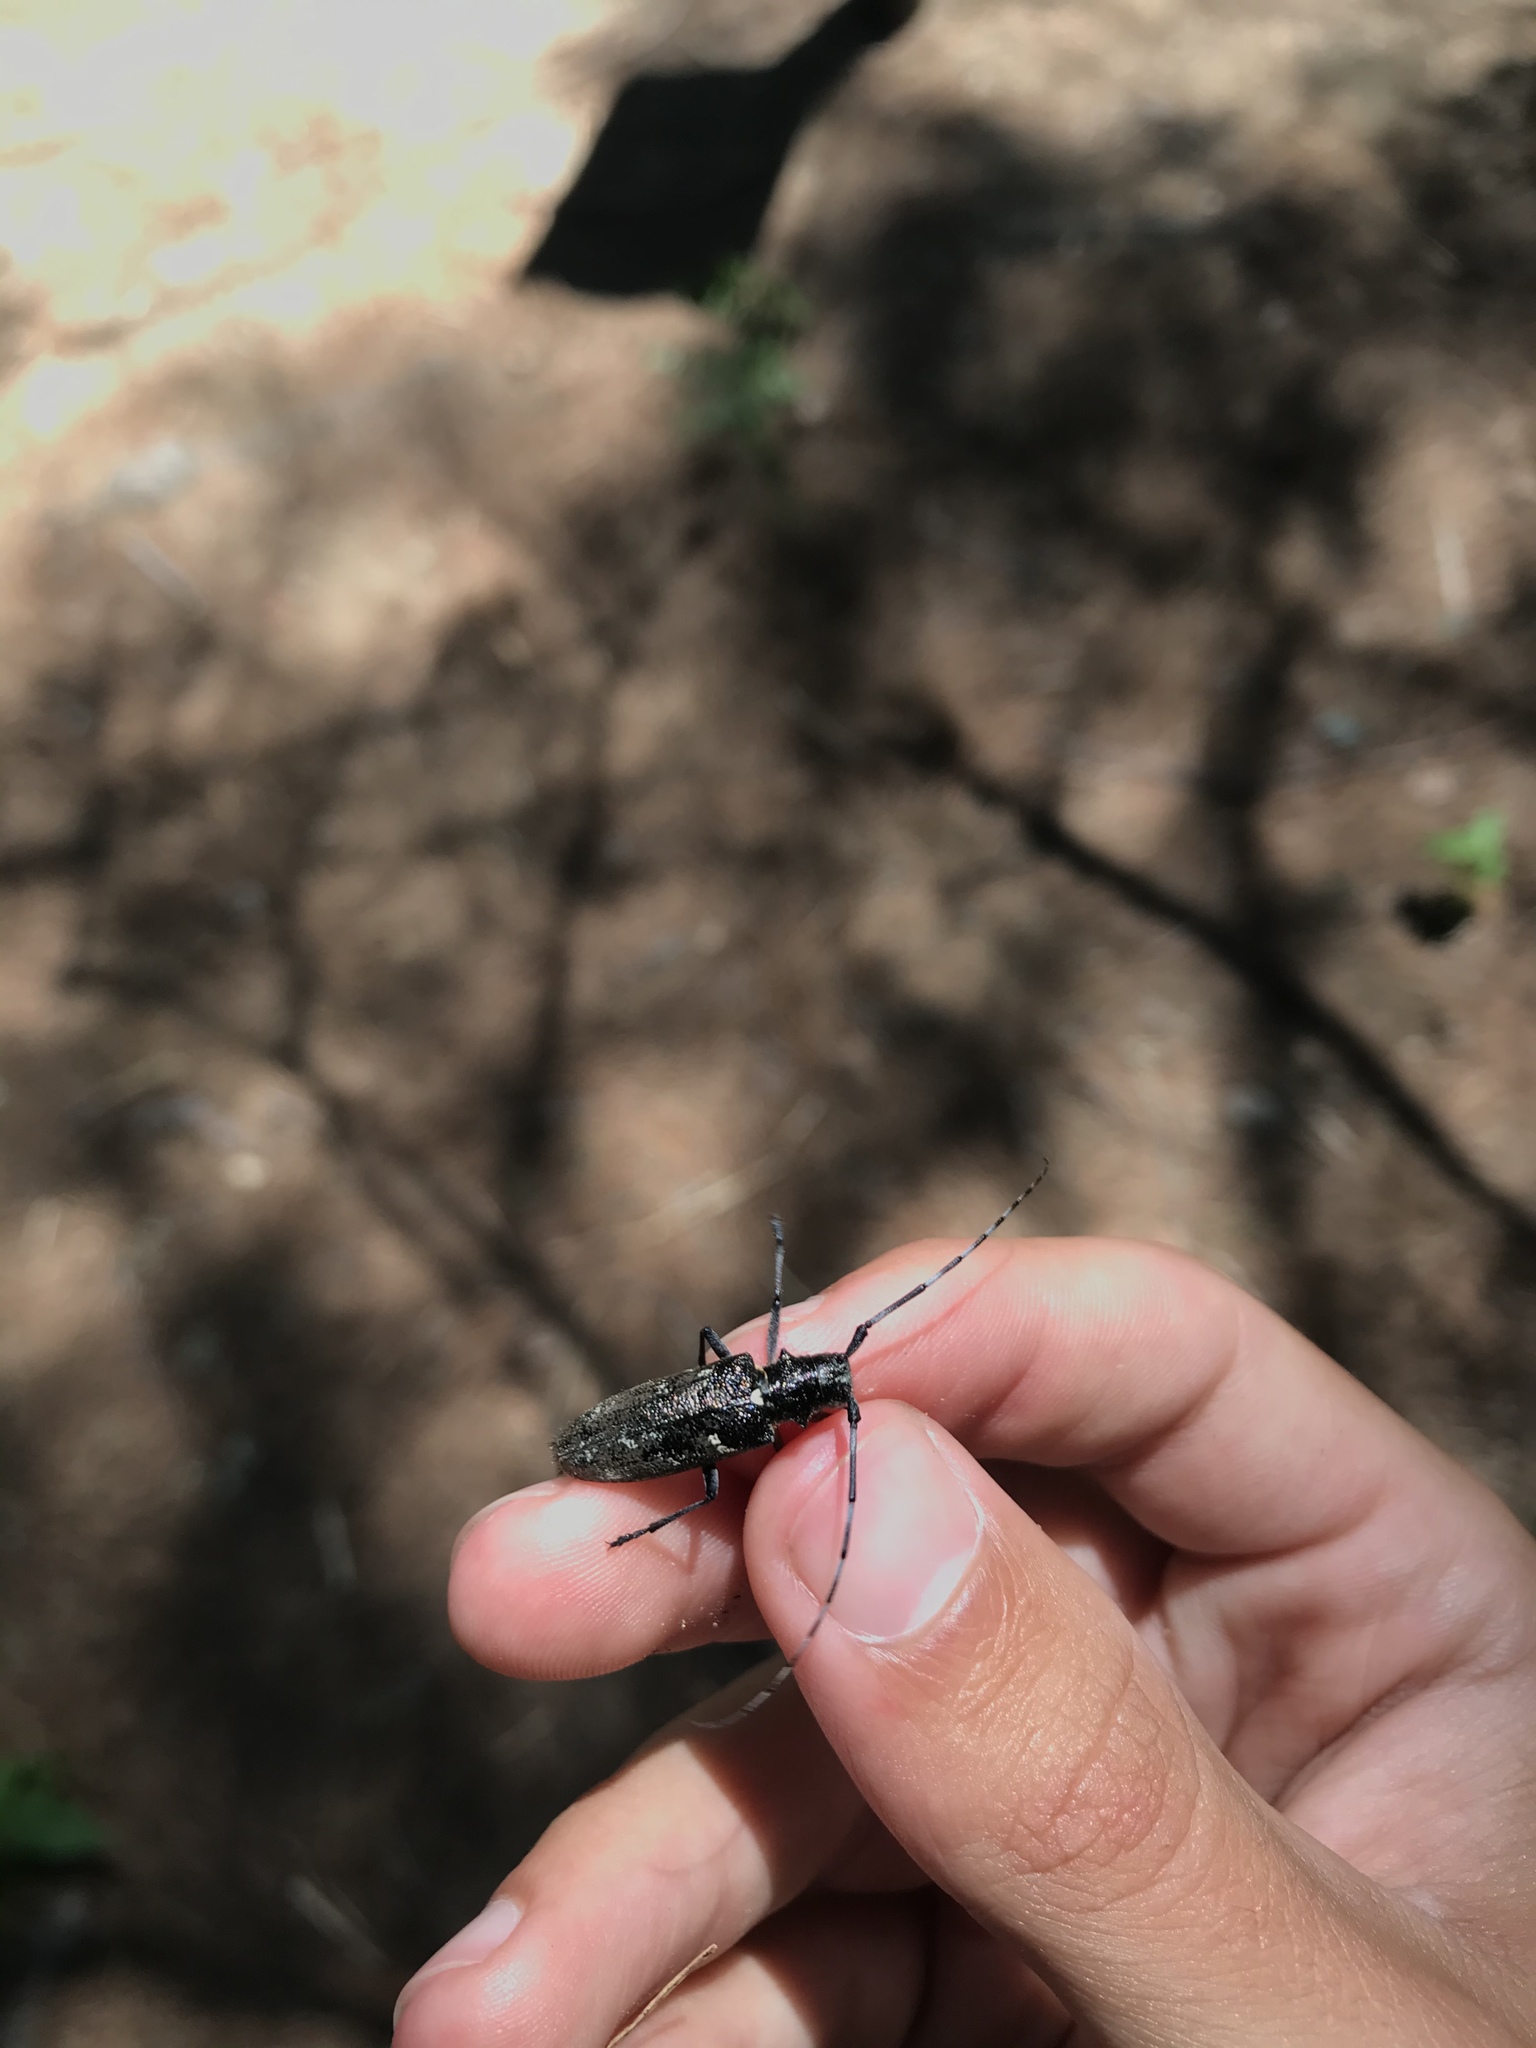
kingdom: Animalia
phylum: Arthropoda
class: Insecta
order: Coleoptera
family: Cerambycidae
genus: Monochamus
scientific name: Monochamus scutellatus
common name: White-spotted sawyer beetle
